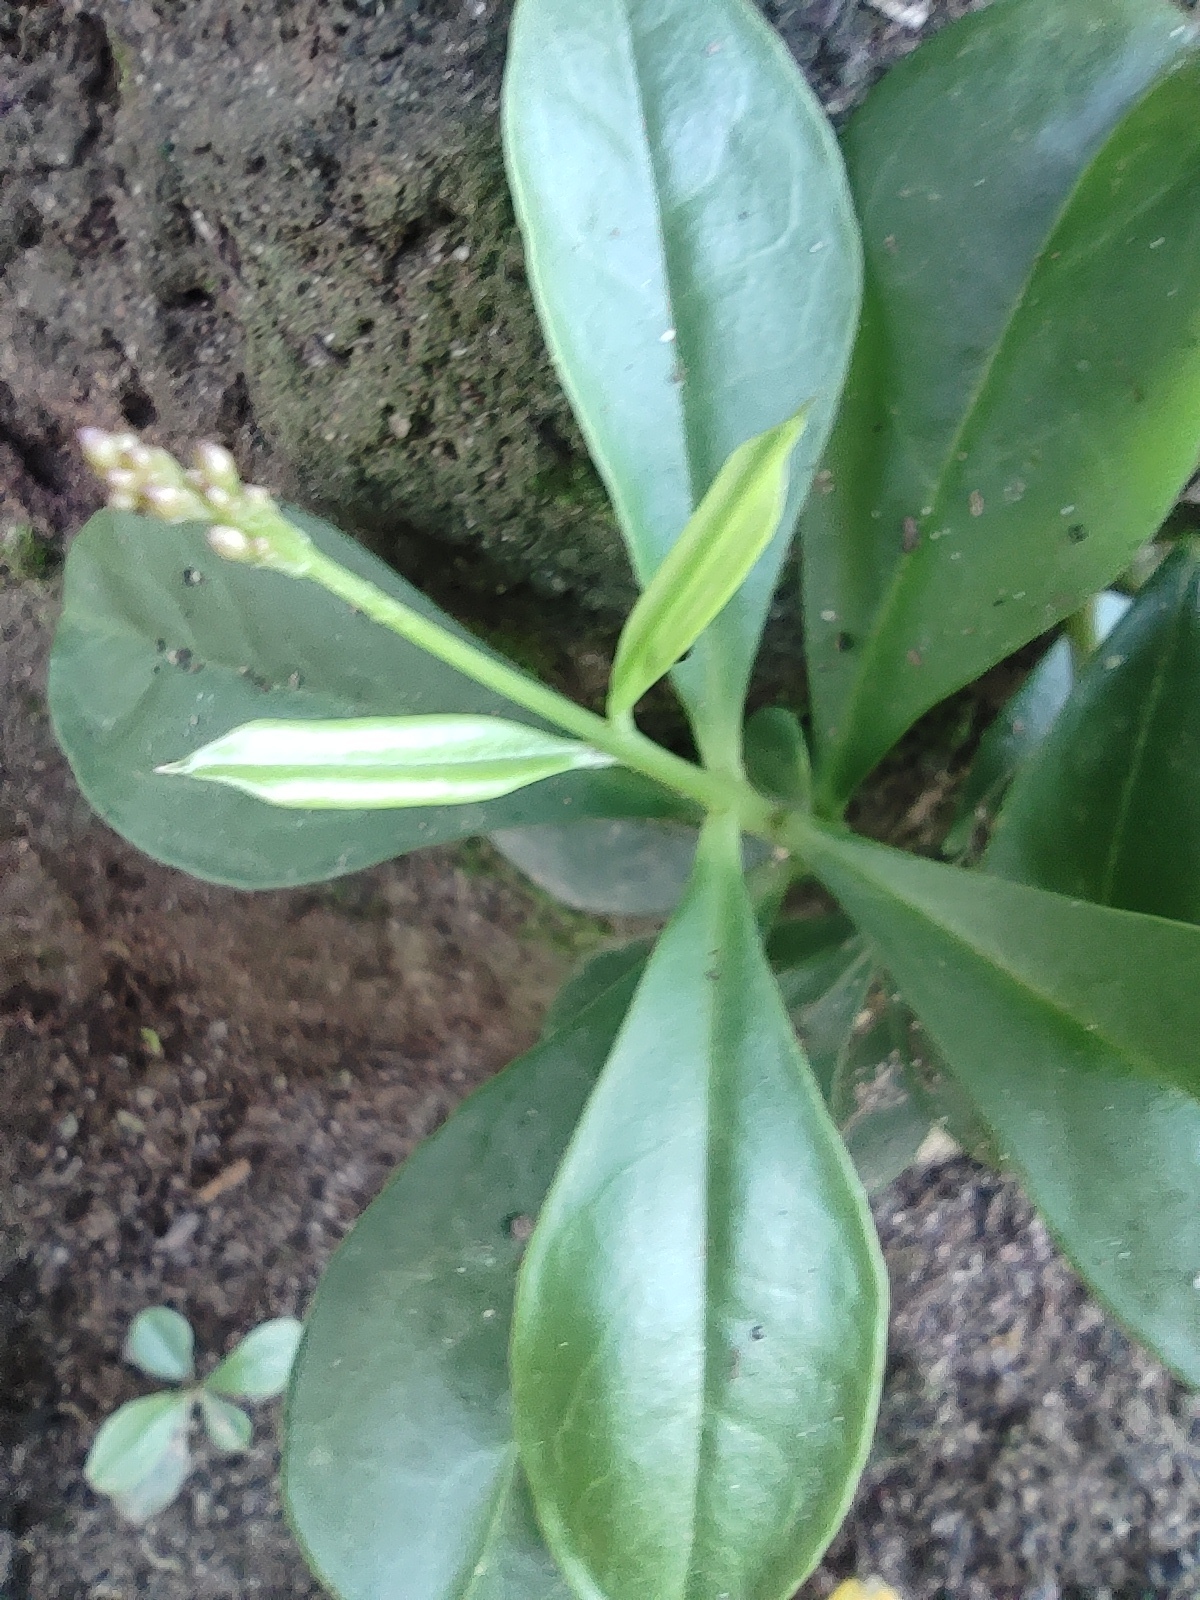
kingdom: Plantae
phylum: Tracheophyta
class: Magnoliopsida
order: Caryophyllales
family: Talinaceae
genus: Talinum
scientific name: Talinum paniculatum
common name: Jewels of opar
